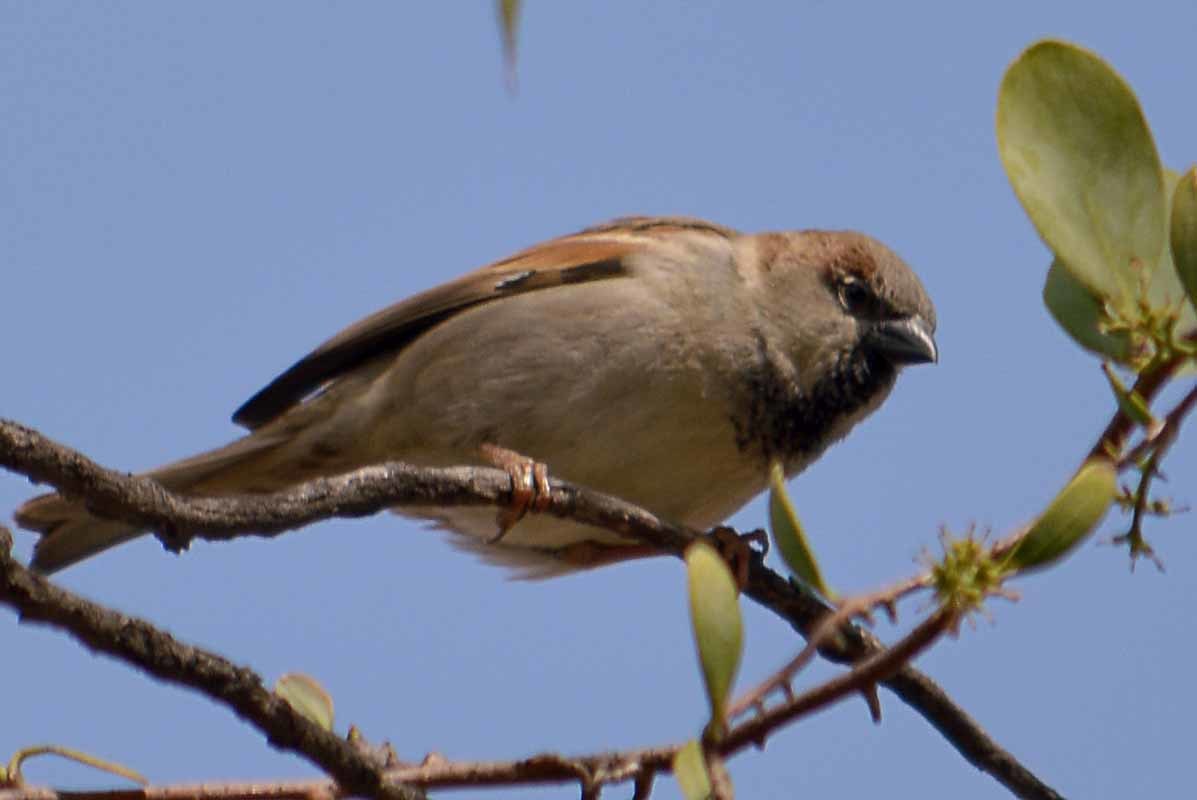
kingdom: Animalia
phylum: Chordata
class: Aves
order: Passeriformes
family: Passeridae
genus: Passer
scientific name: Passer domesticus
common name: House sparrow
